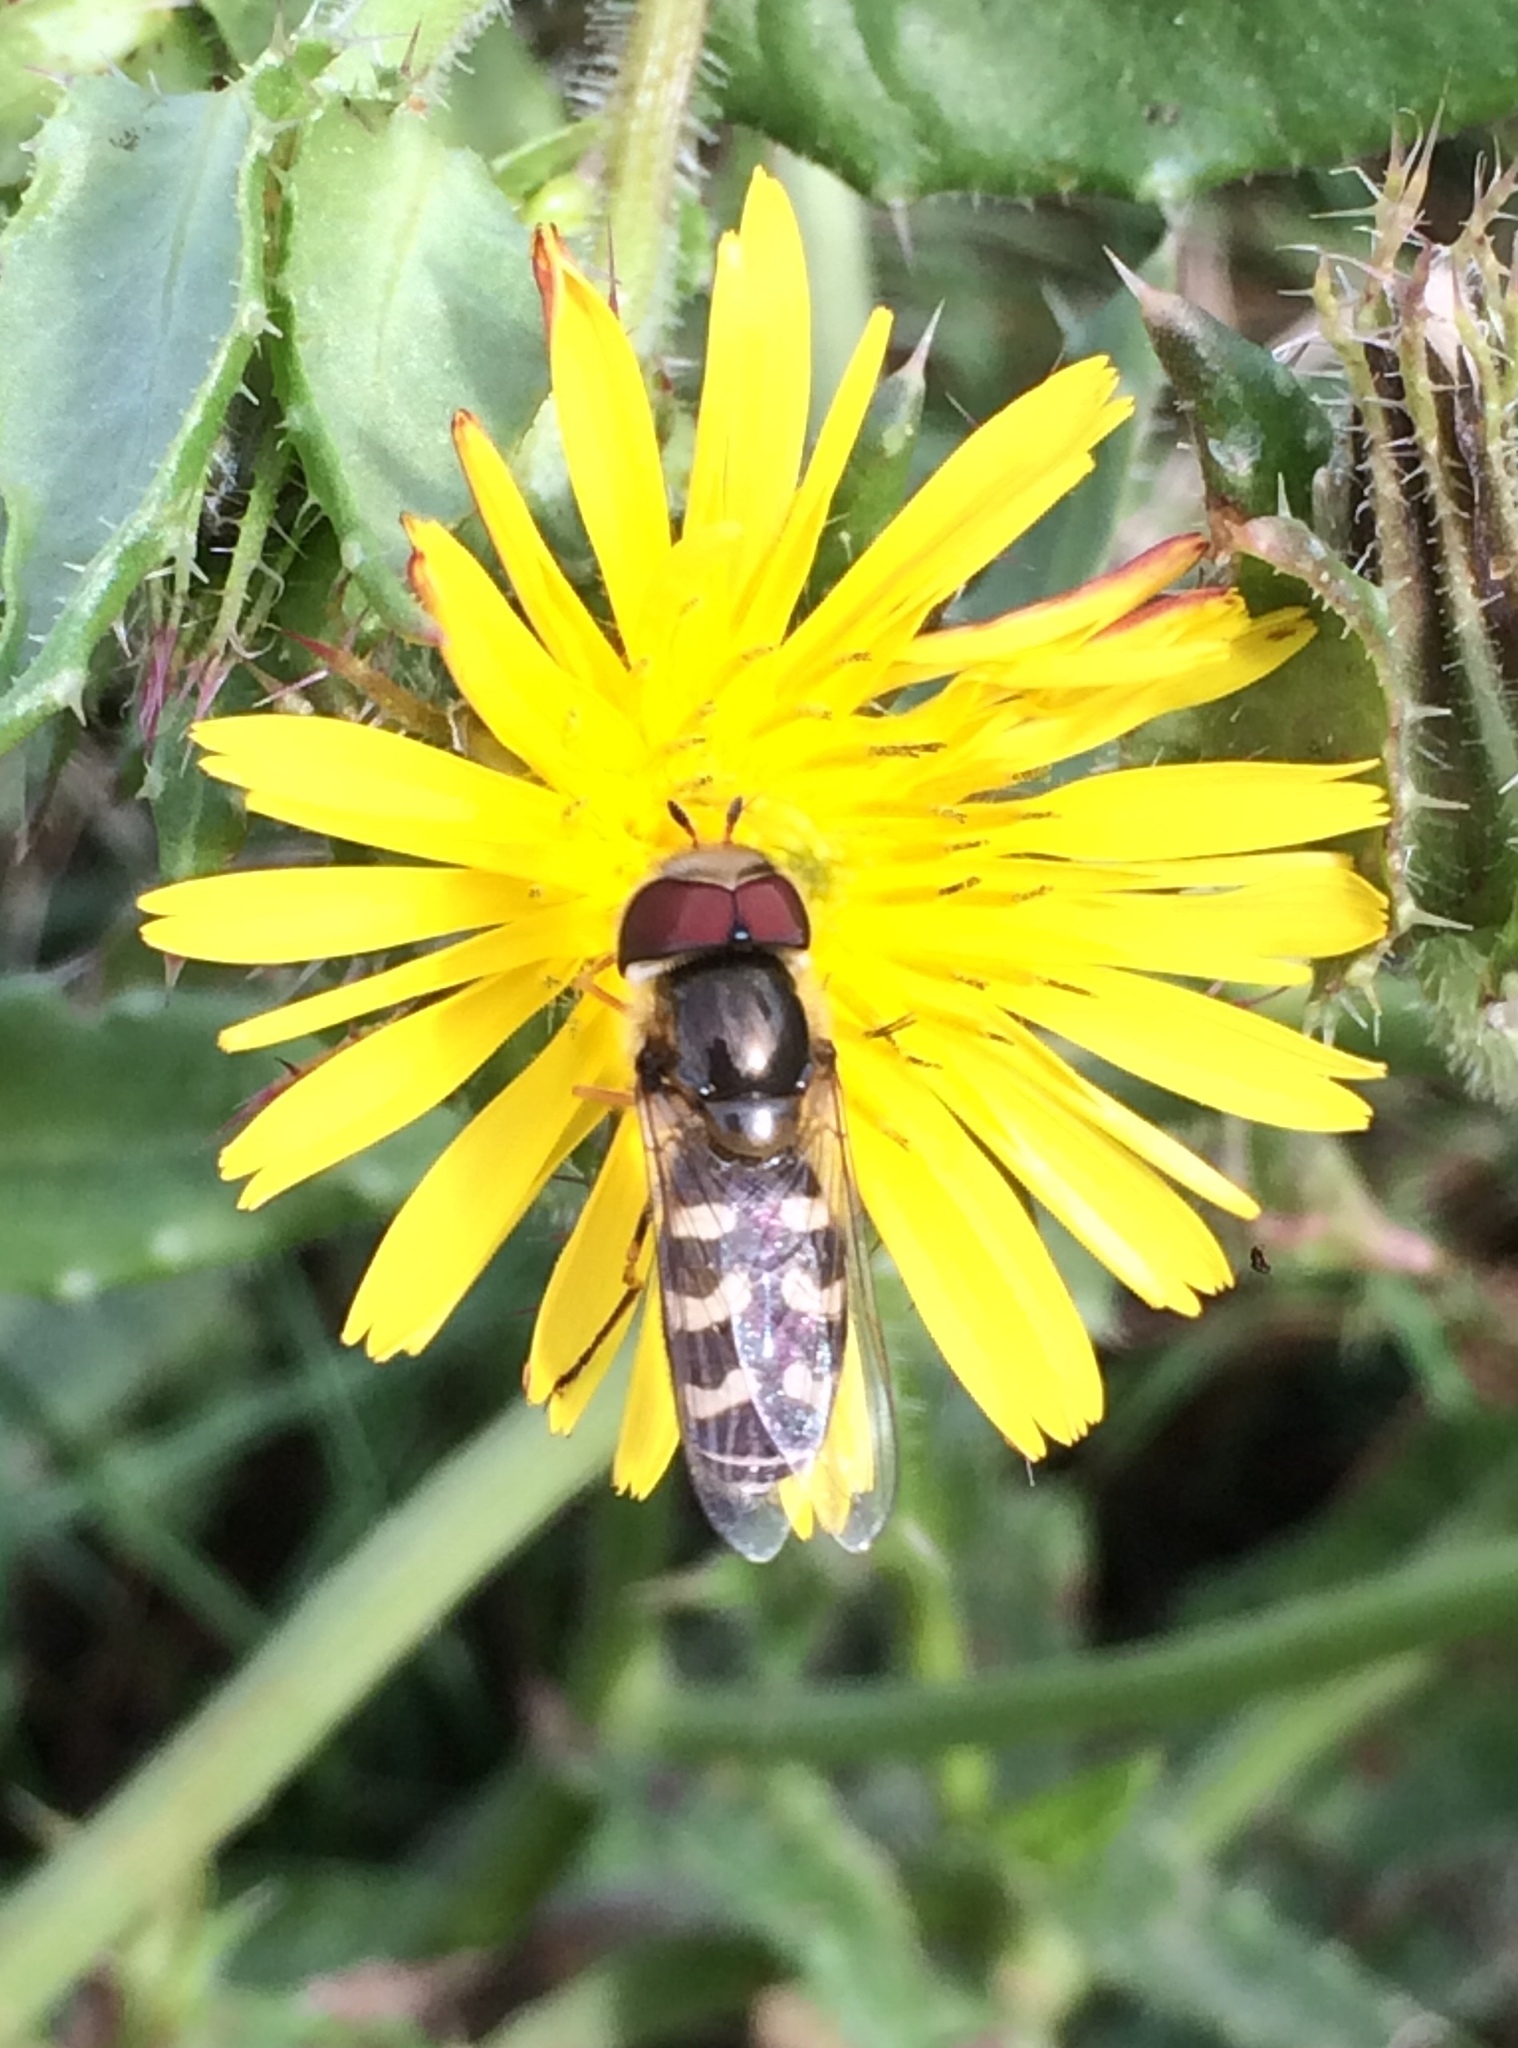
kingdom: Animalia
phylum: Arthropoda
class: Insecta
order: Diptera
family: Syrphidae
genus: Scaeva
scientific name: Scaeva pyrastri
